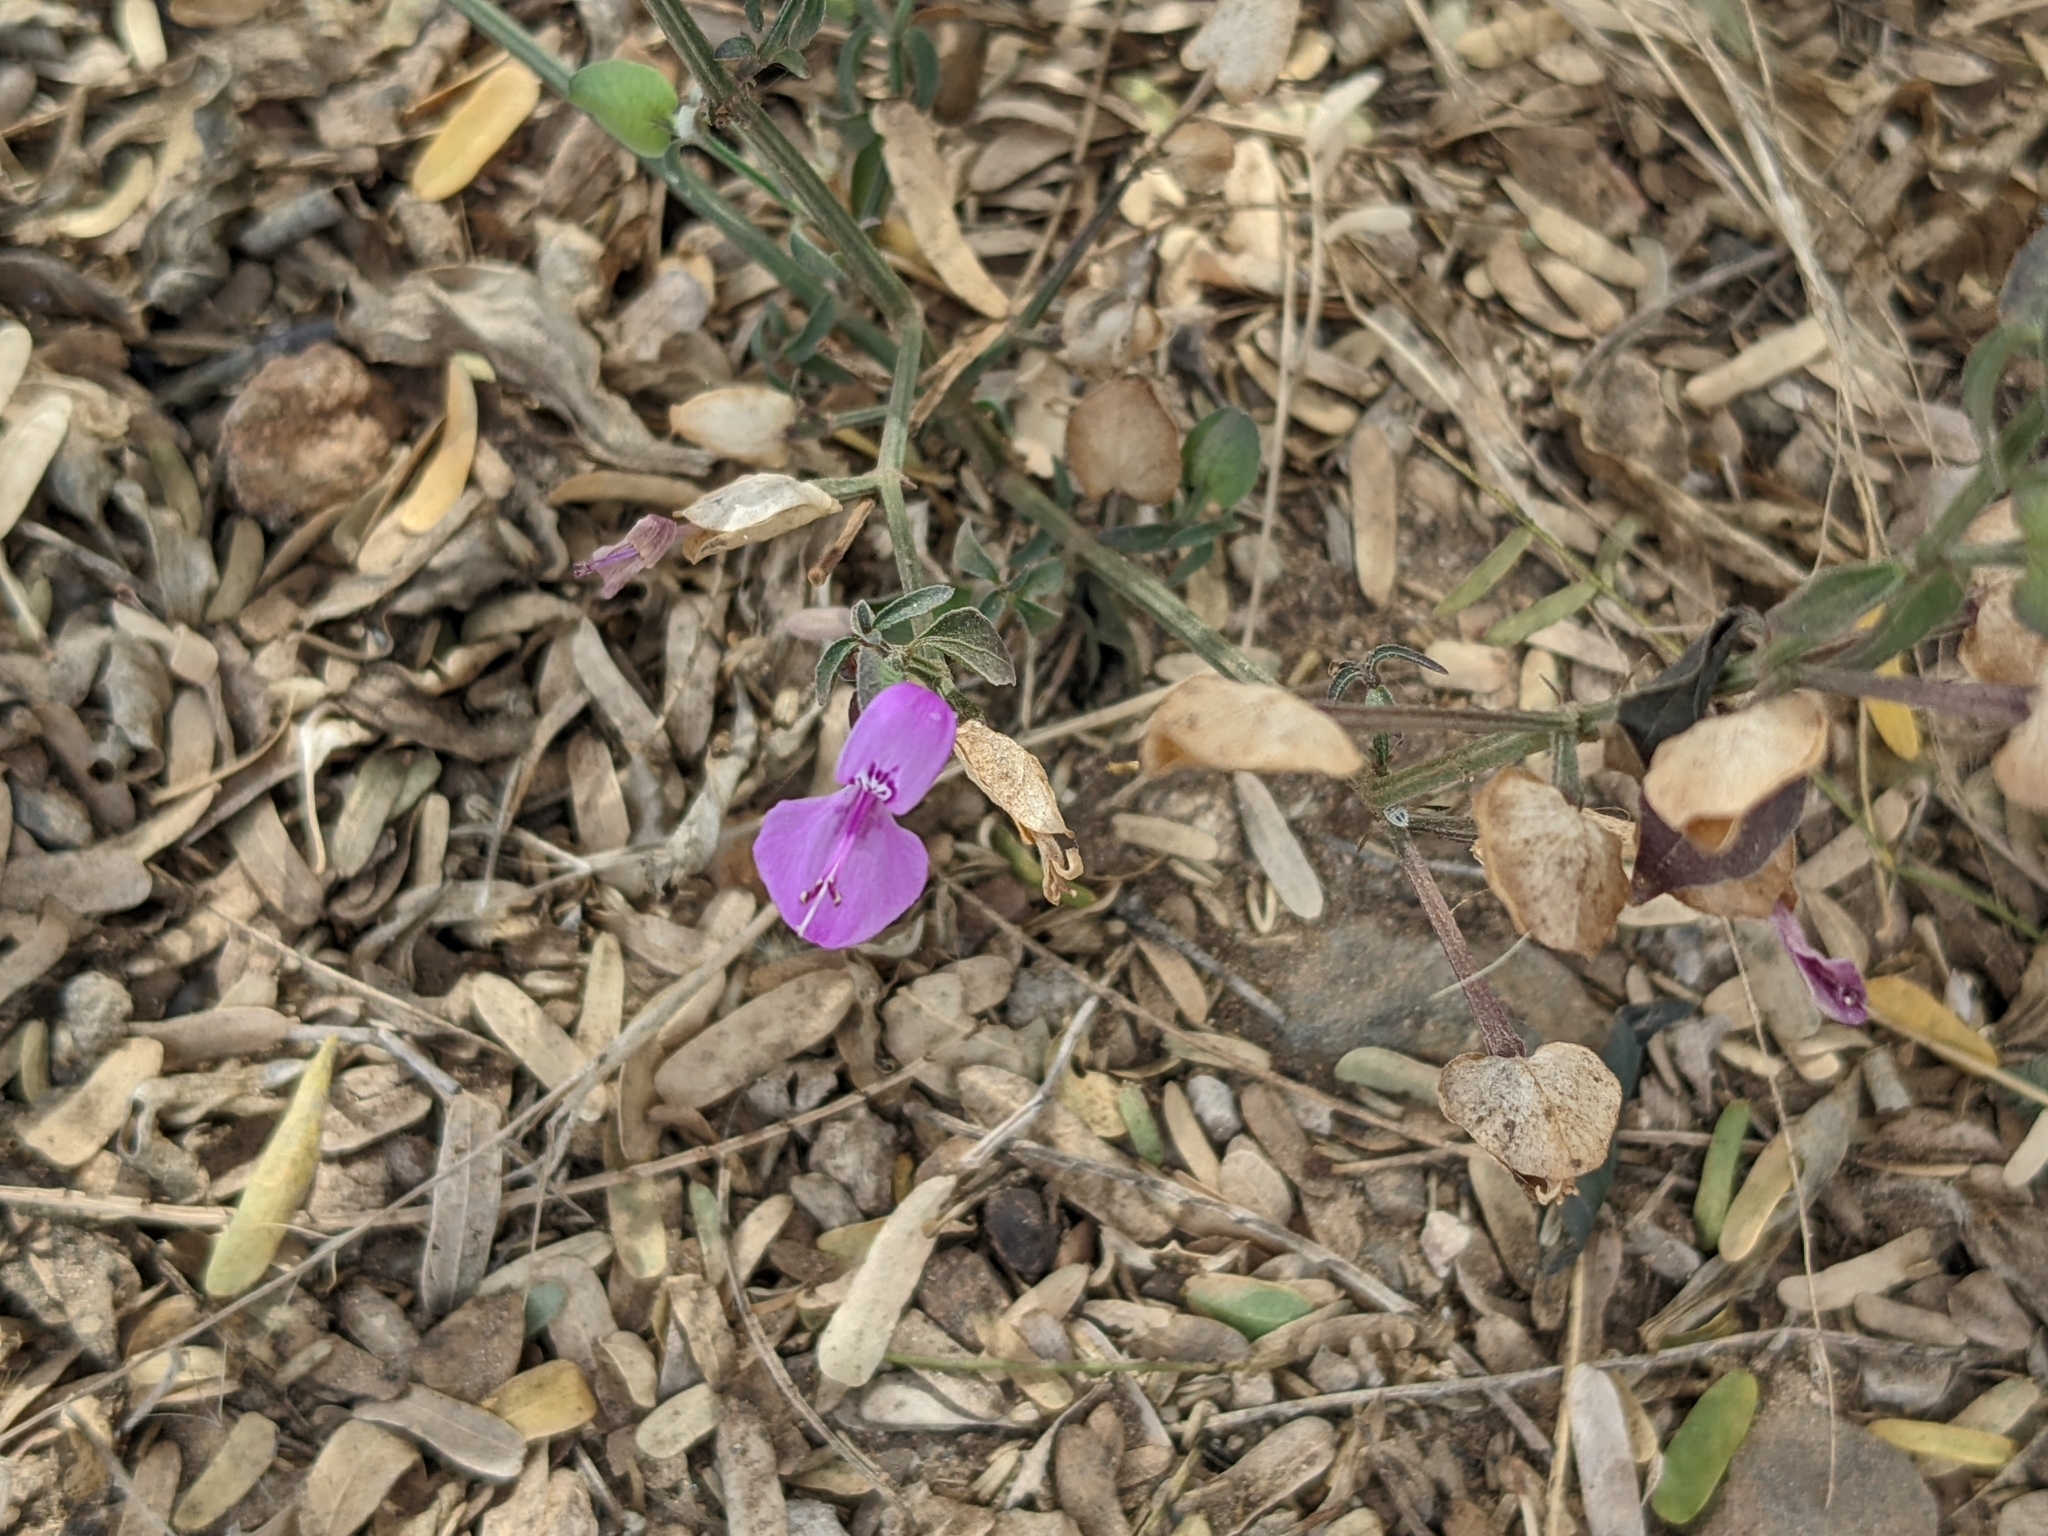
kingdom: Plantae
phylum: Tracheophyta
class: Magnoliopsida
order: Lamiales
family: Acanthaceae
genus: Dicliptera
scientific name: Dicliptera resupinata
